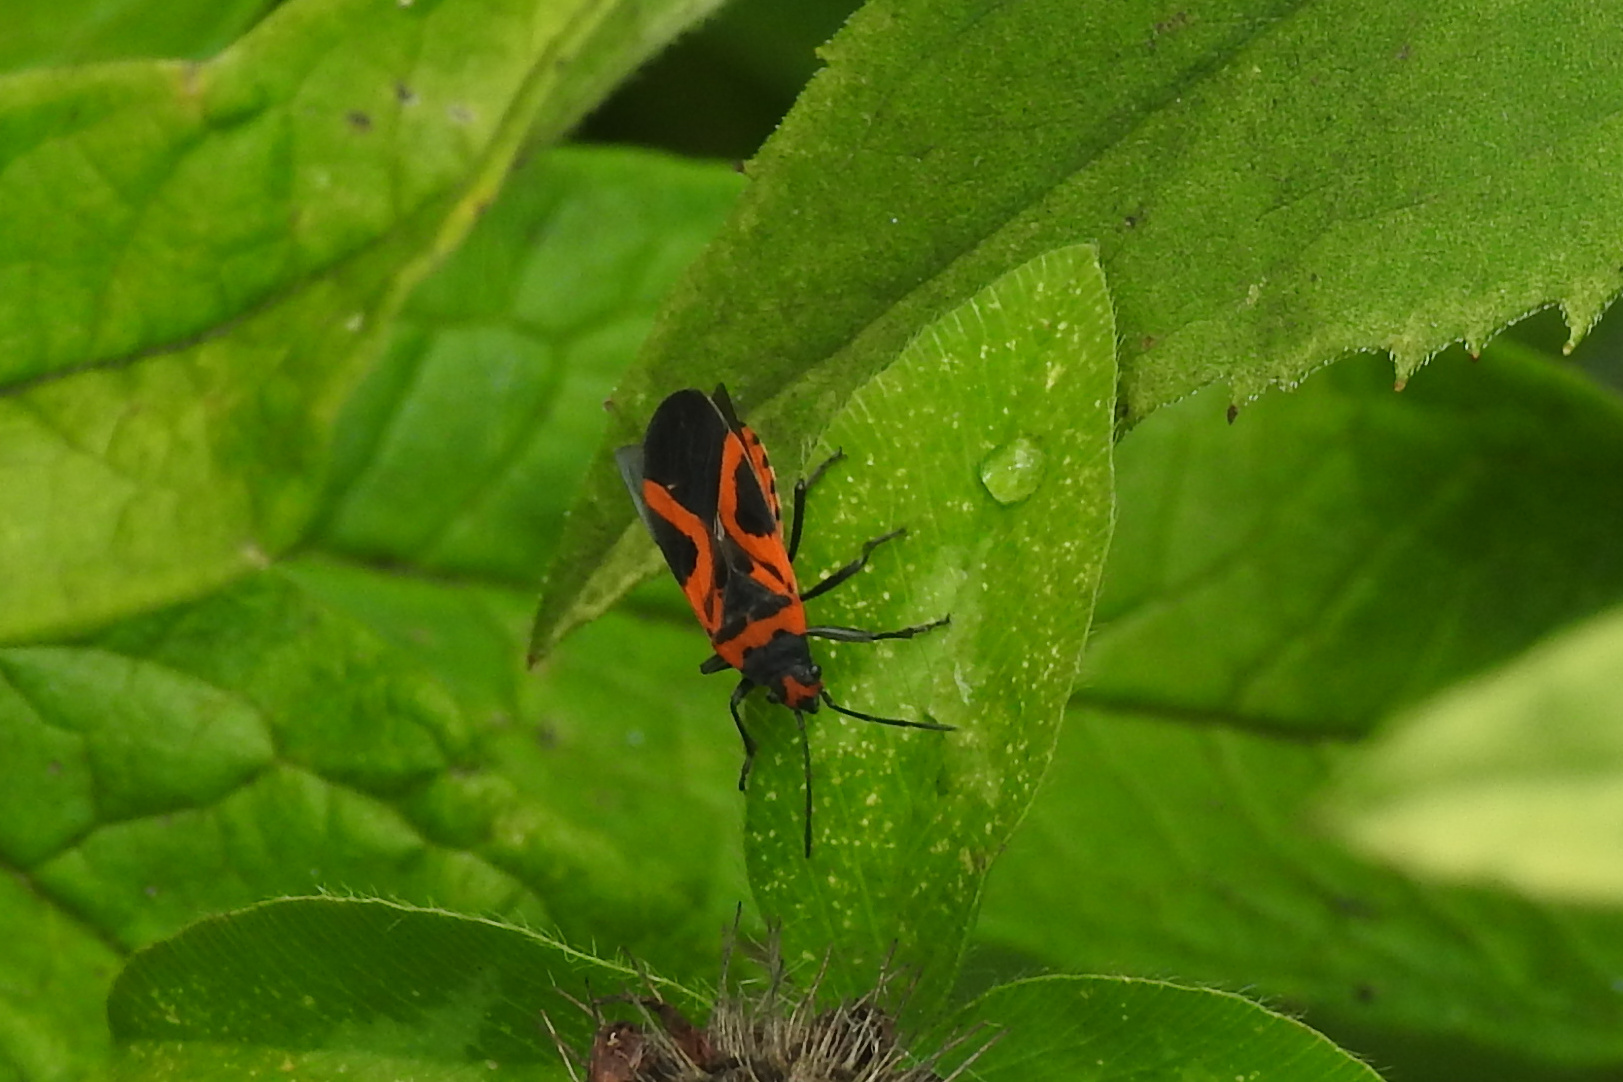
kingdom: Animalia
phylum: Arthropoda
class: Insecta
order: Hemiptera
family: Lygaeidae
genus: Lygaeus
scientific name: Lygaeus turcicus
